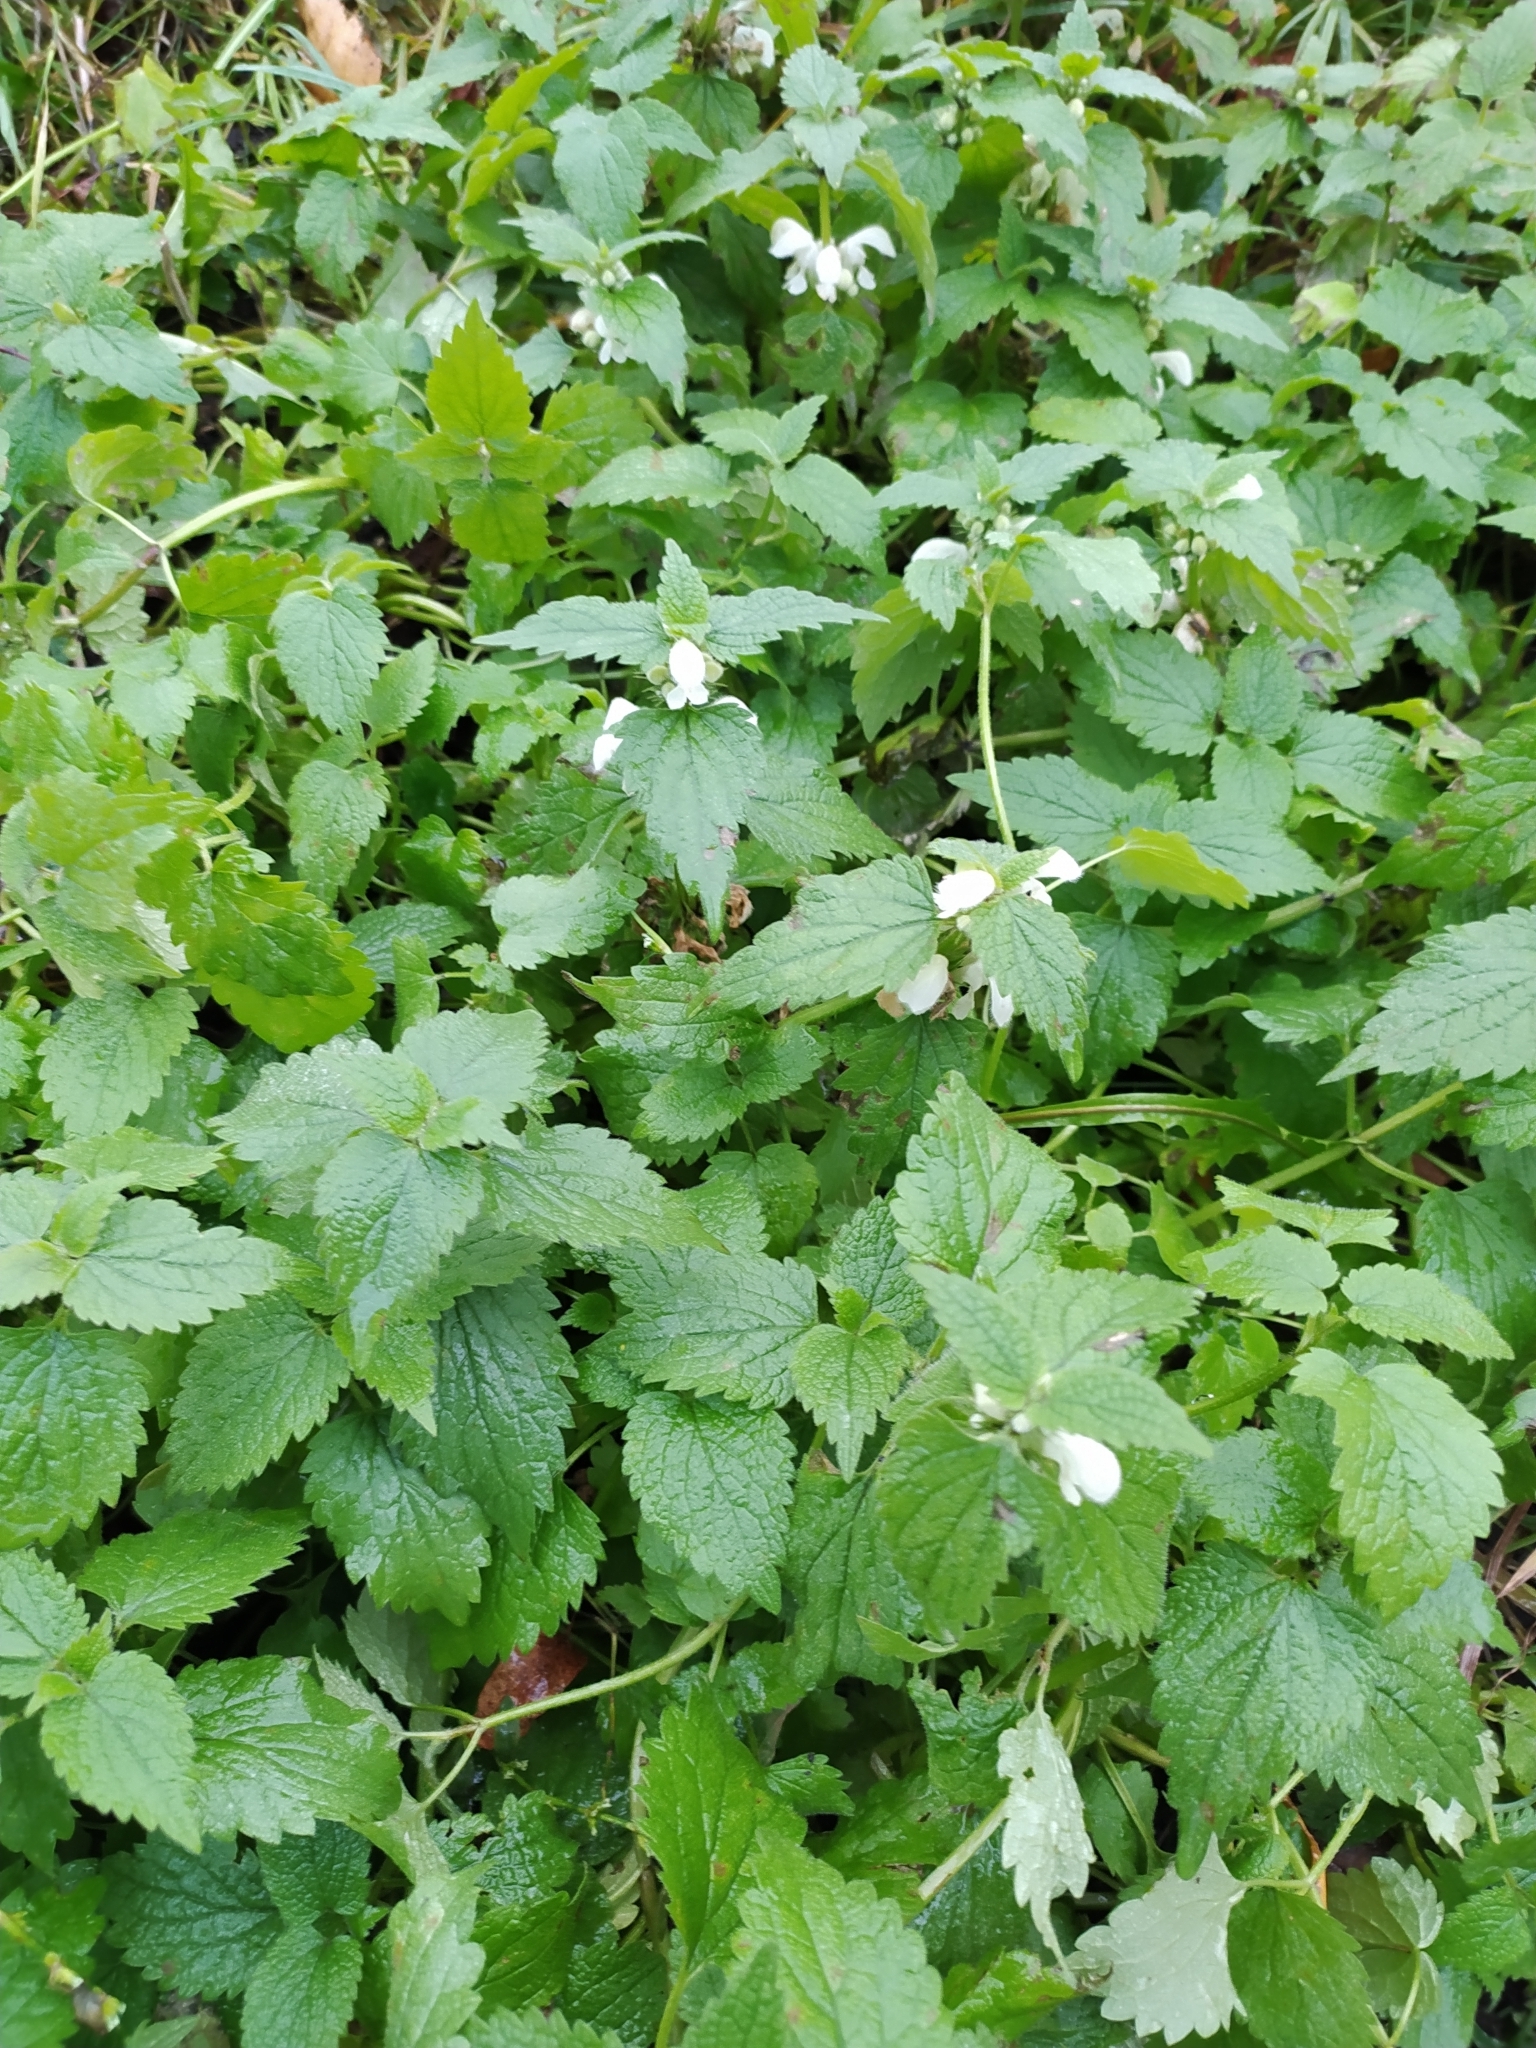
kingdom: Plantae
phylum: Tracheophyta
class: Magnoliopsida
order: Lamiales
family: Lamiaceae
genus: Lamium
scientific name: Lamium album
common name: White dead-nettle
